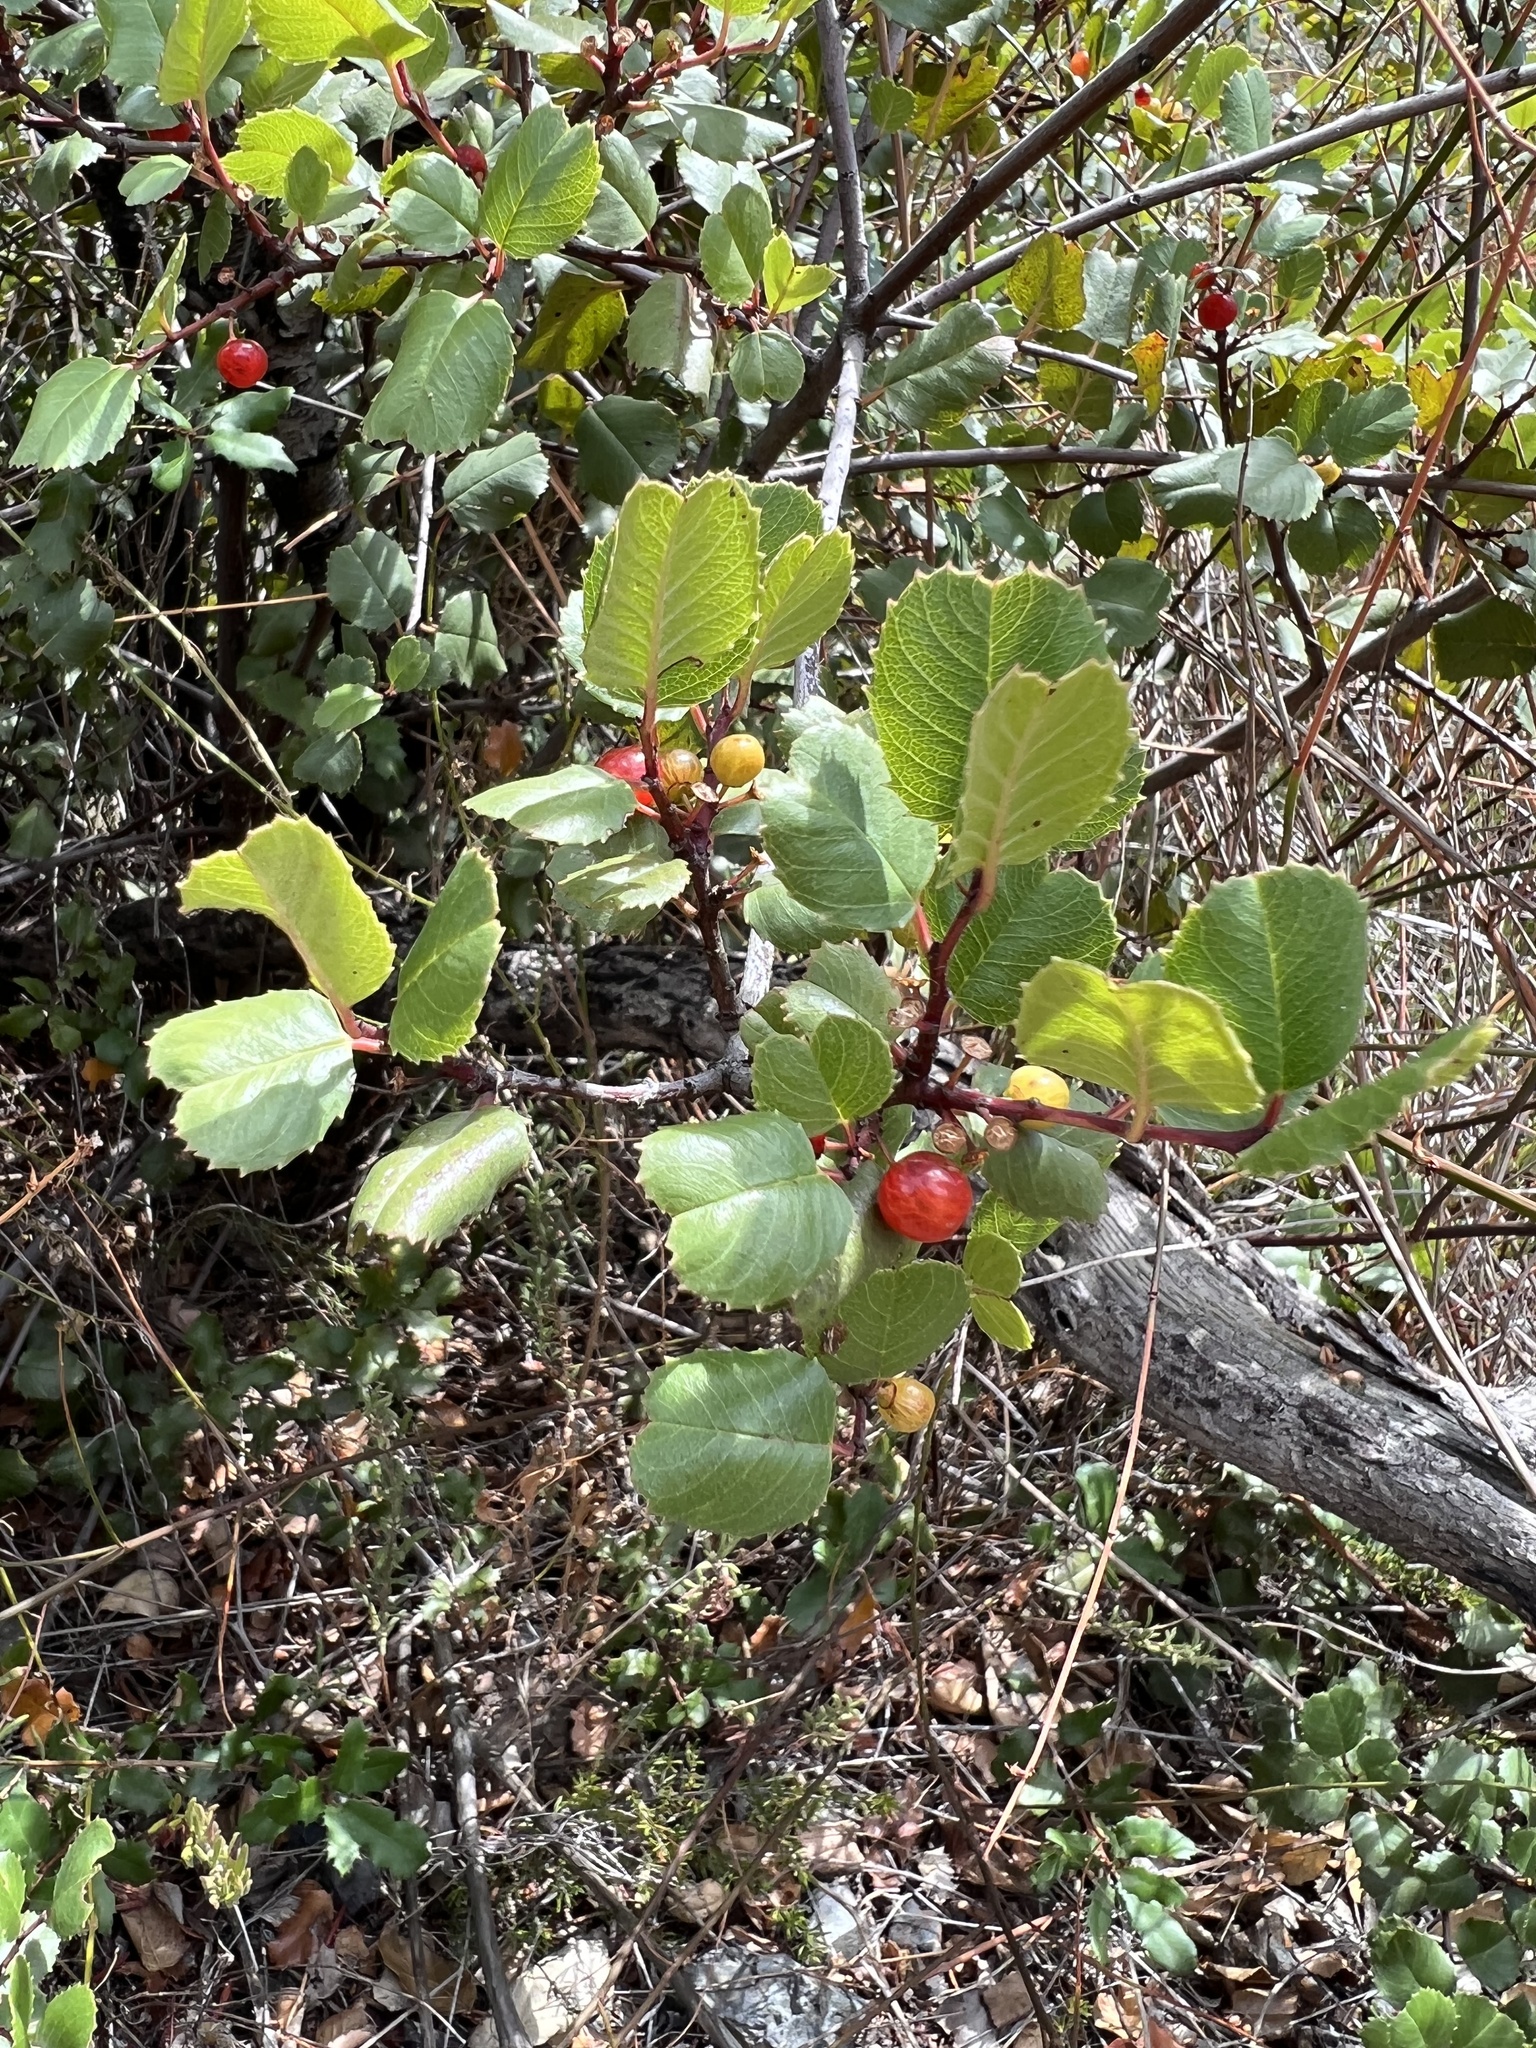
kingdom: Plantae
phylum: Tracheophyta
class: Magnoliopsida
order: Rosales
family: Rhamnaceae
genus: Endotropis
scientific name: Endotropis crocea
